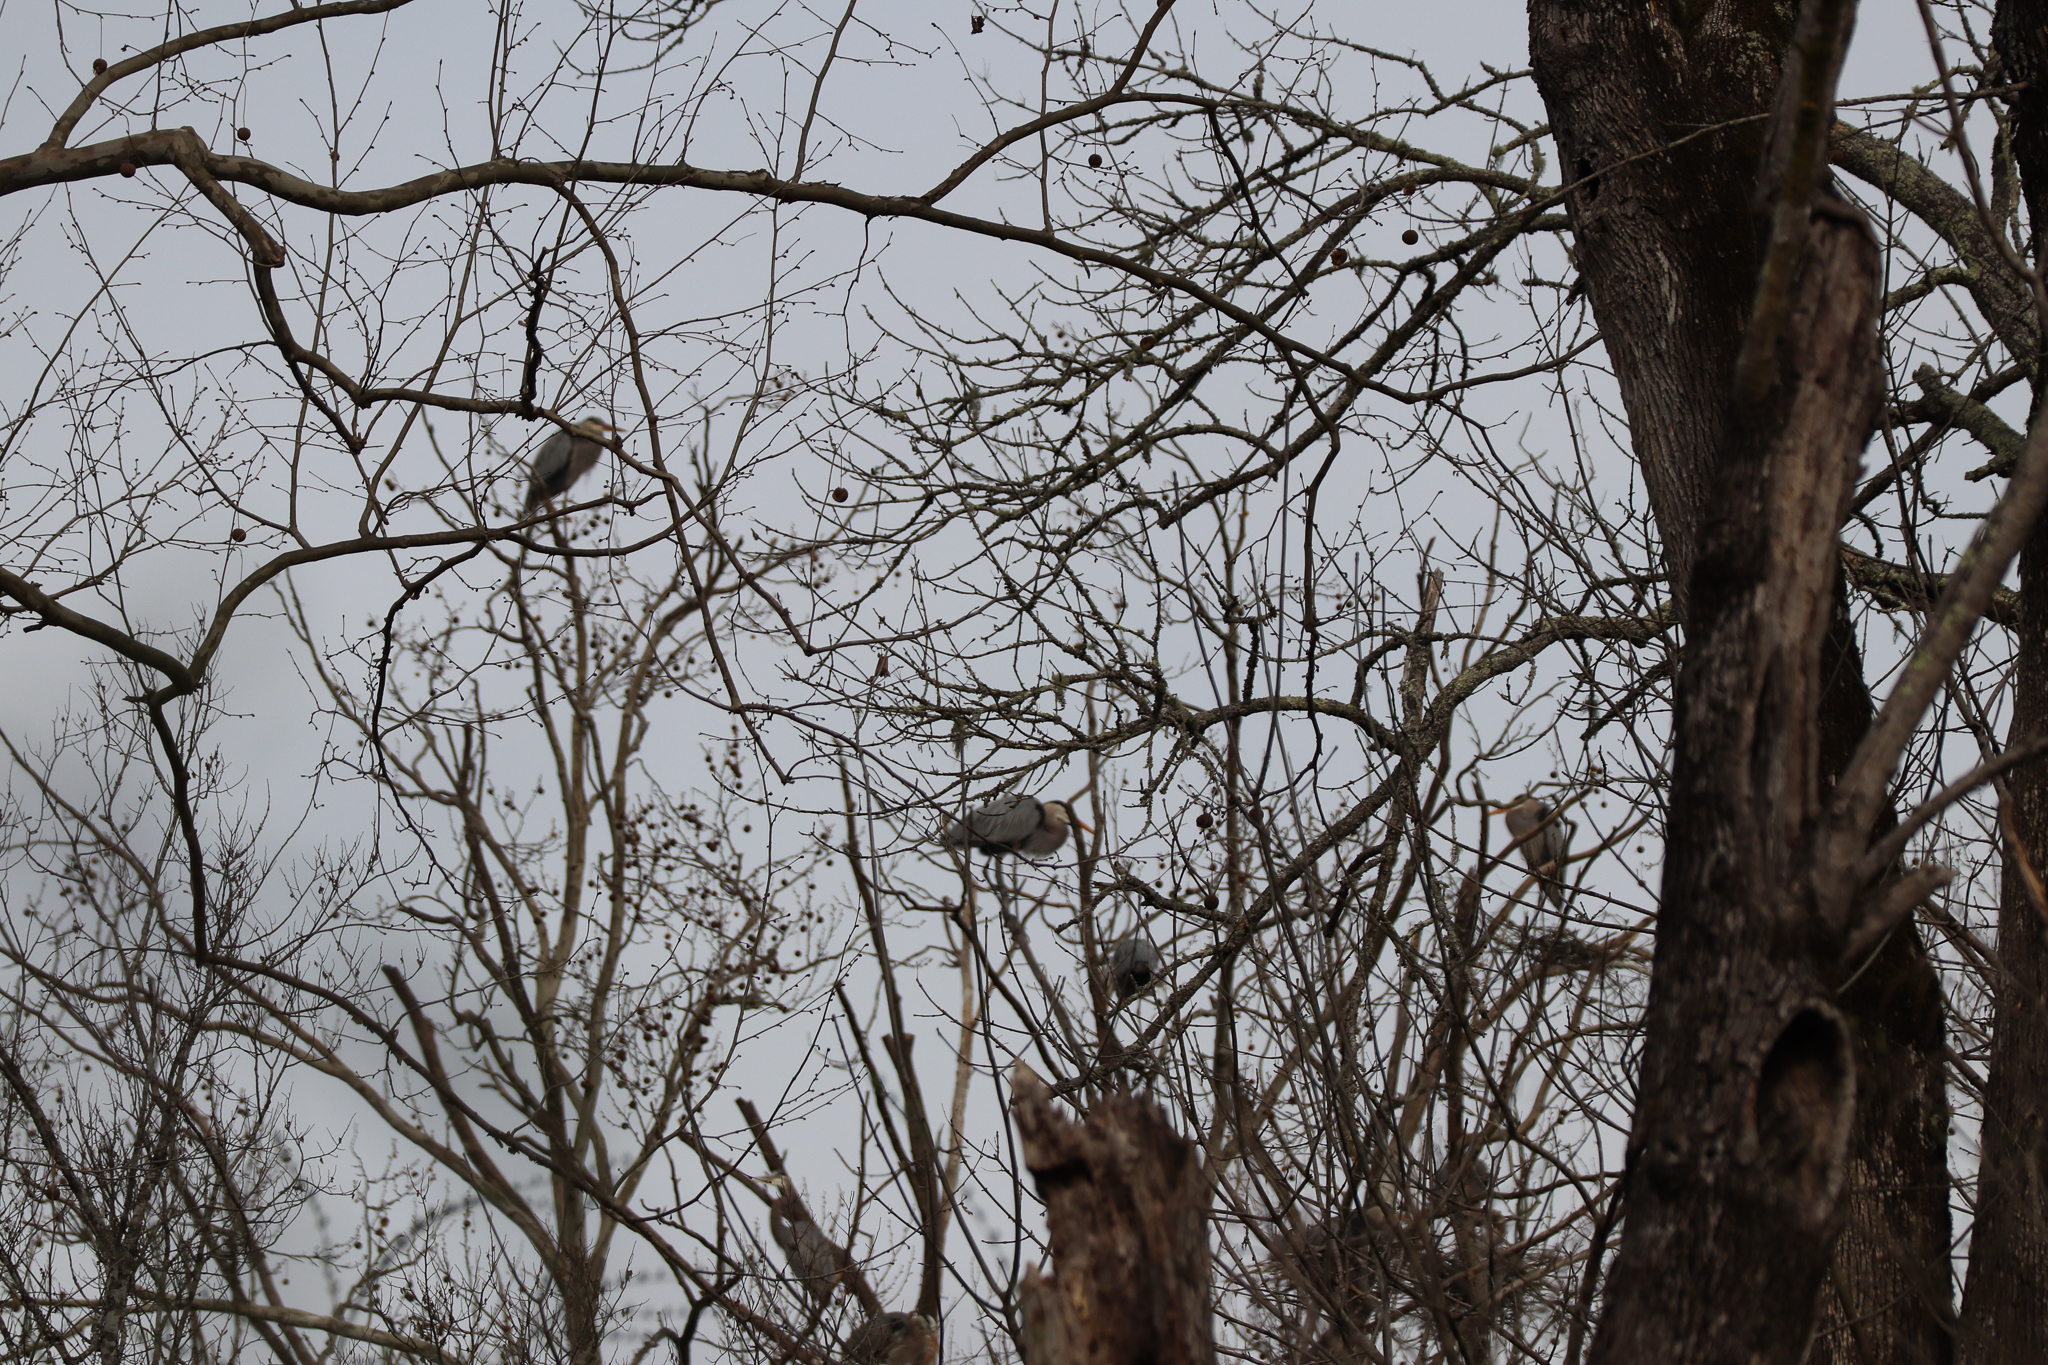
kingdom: Animalia
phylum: Chordata
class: Aves
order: Pelecaniformes
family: Ardeidae
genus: Ardea
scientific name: Ardea herodias
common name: Great blue heron
